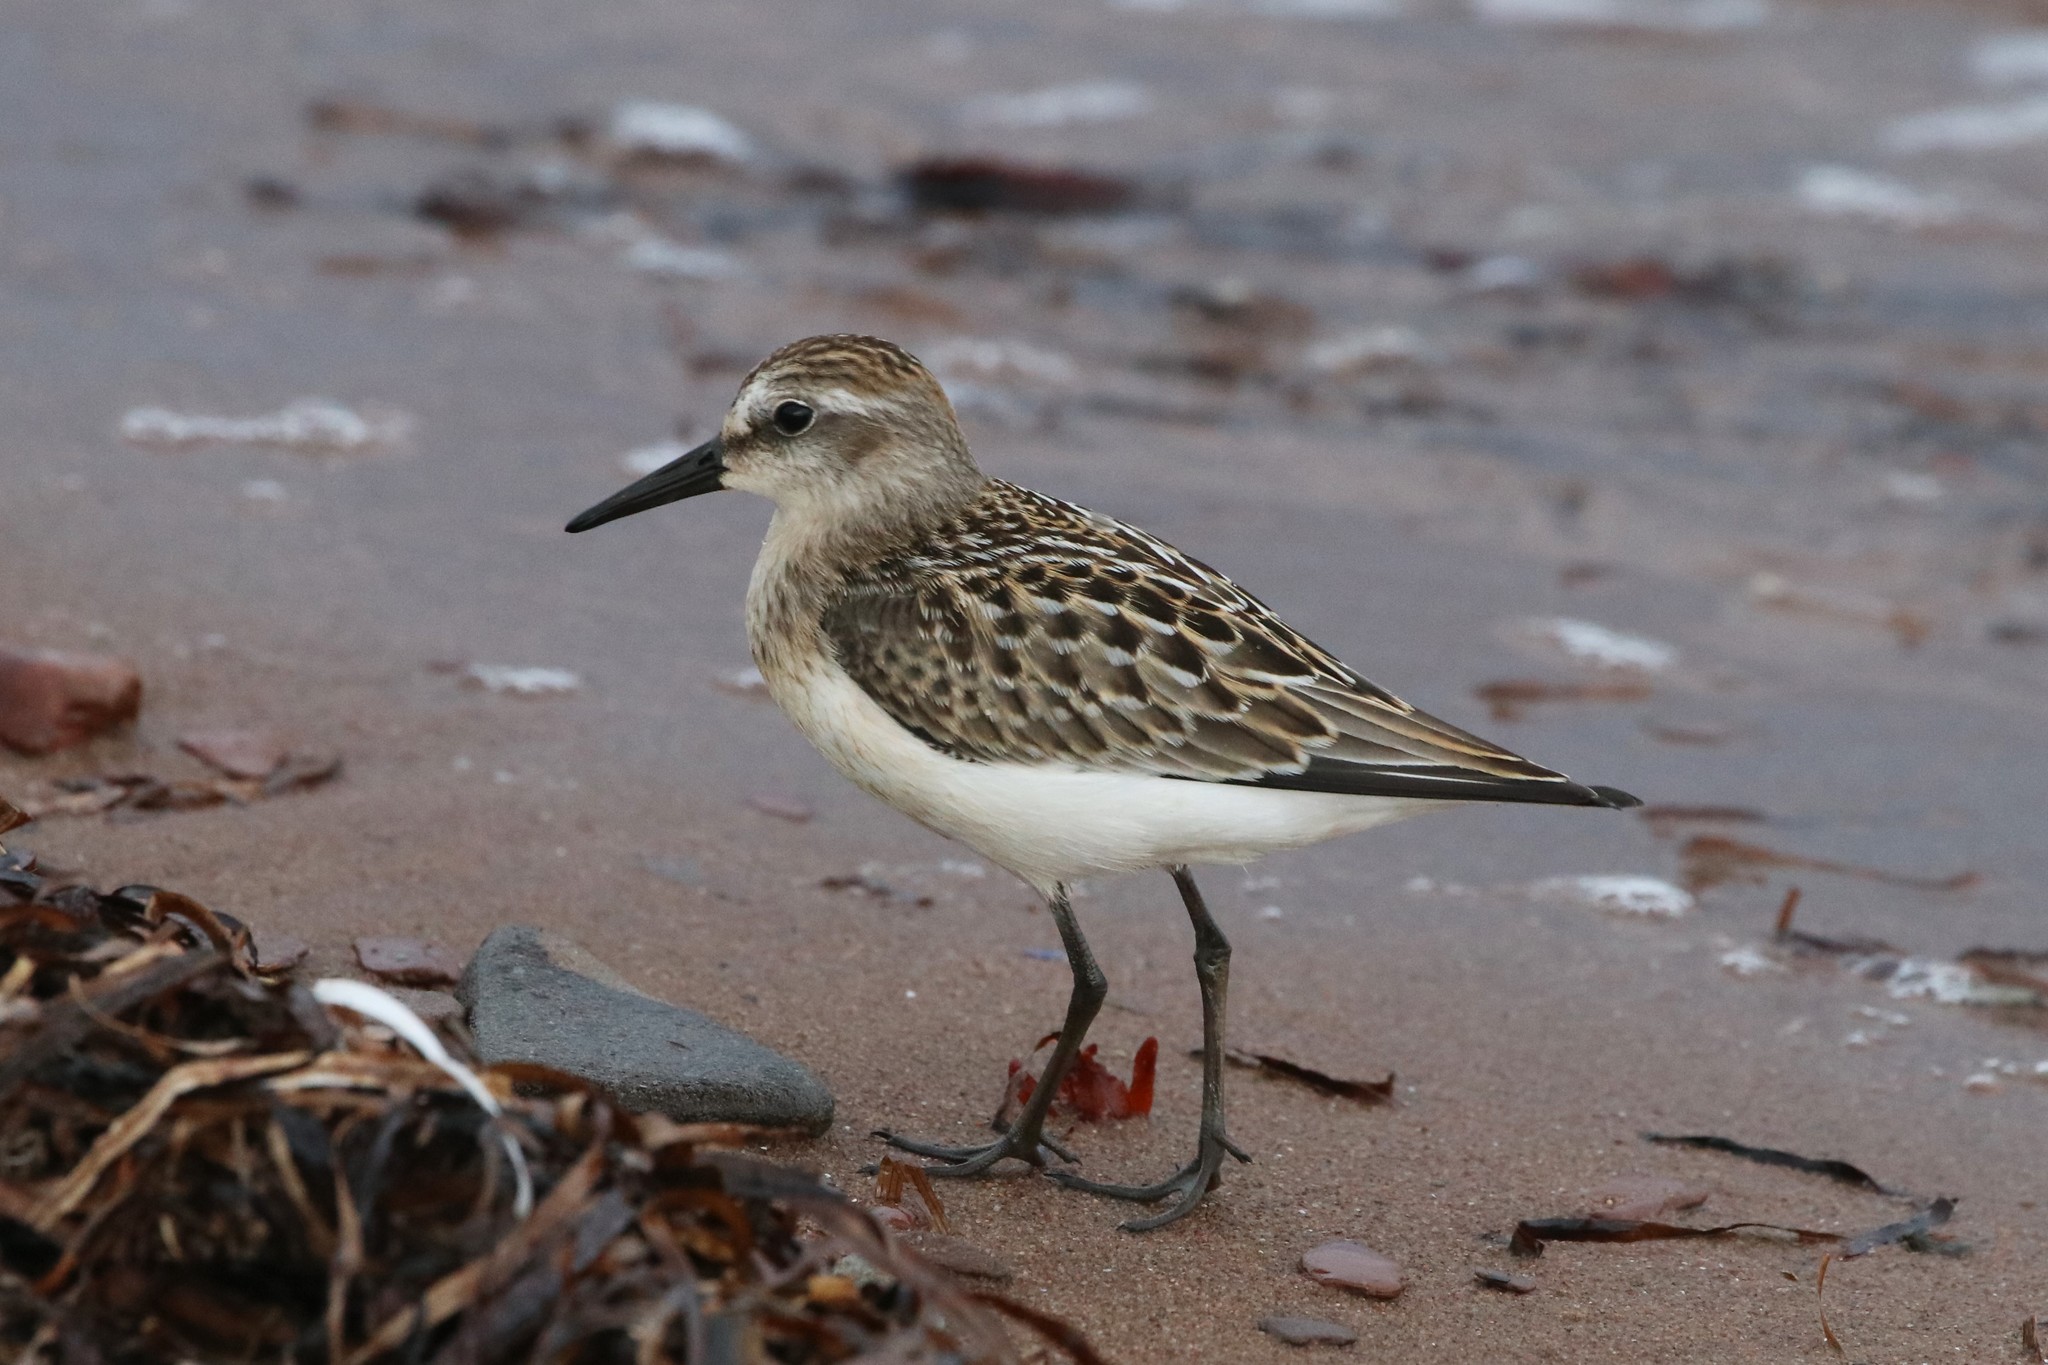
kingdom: Animalia
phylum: Chordata
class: Aves
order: Charadriiformes
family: Scolopacidae
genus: Calidris
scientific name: Calidris pusilla
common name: Semipalmated sandpiper
